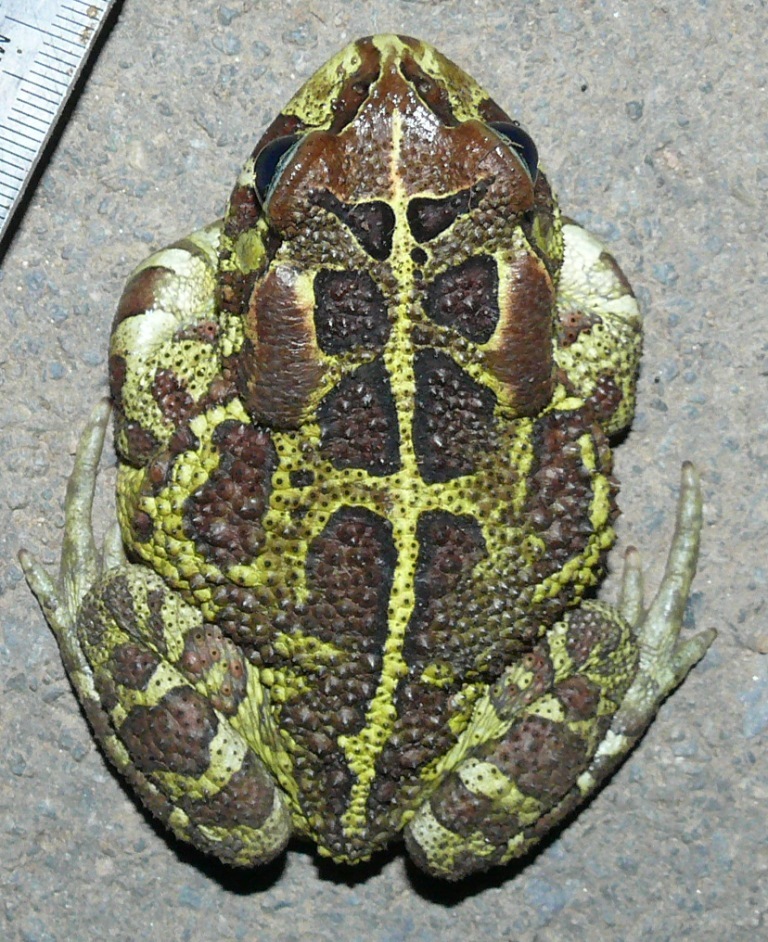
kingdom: Animalia
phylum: Chordata
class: Amphibia
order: Anura
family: Bufonidae
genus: Sclerophrys
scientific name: Sclerophrys pantherina
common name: Panther toad
